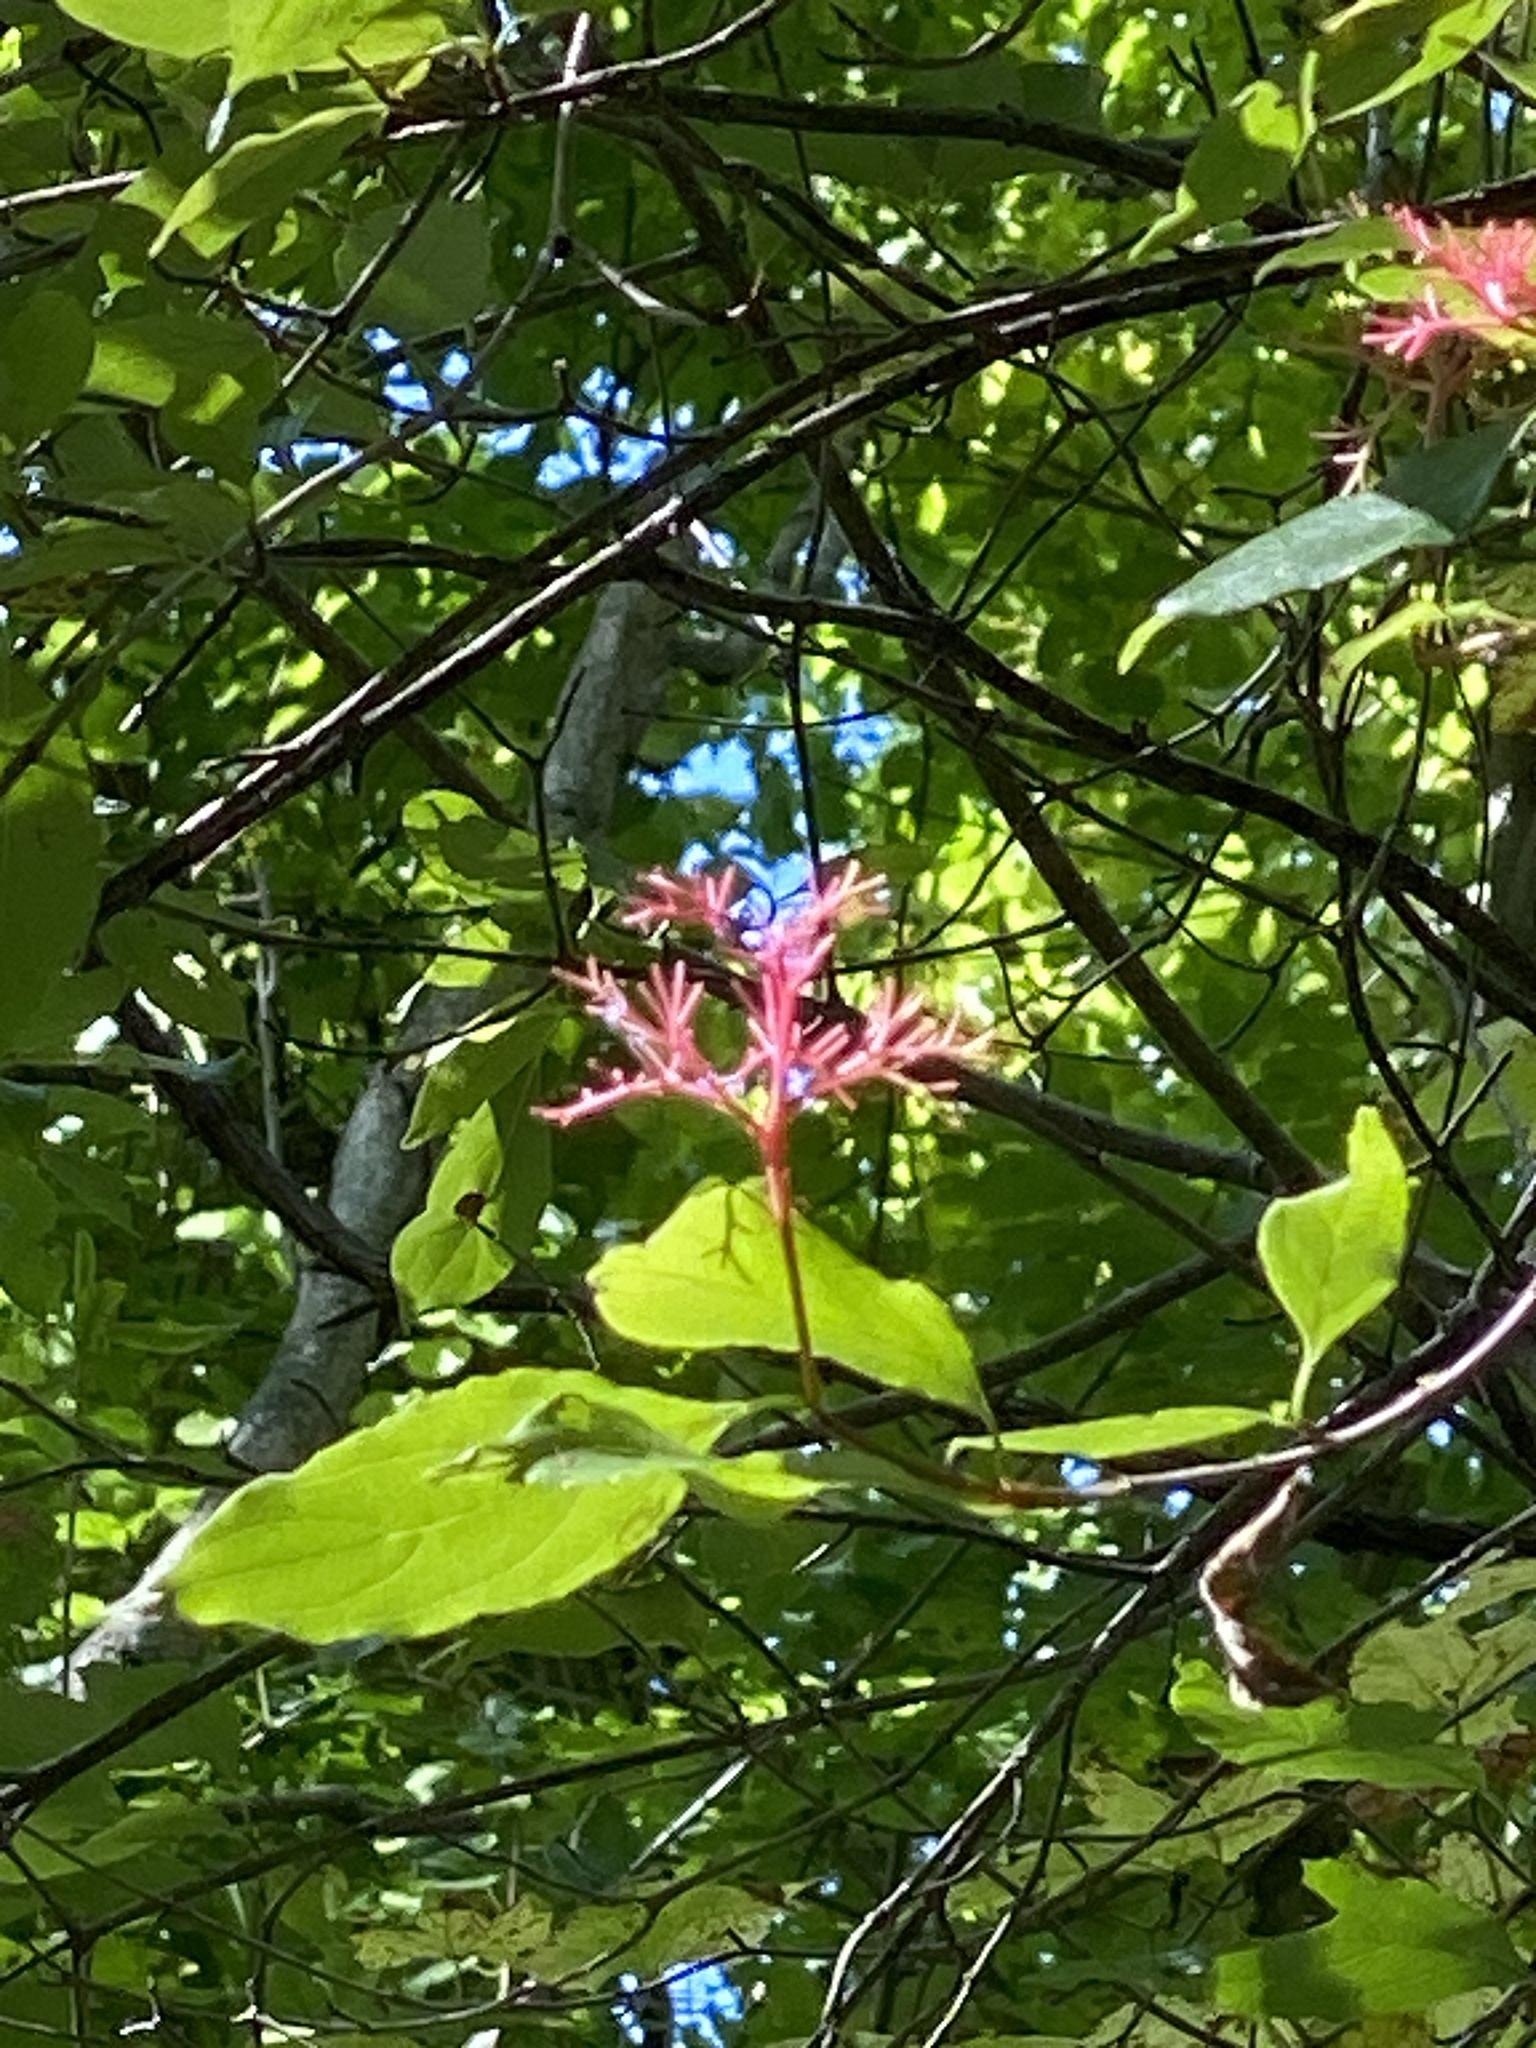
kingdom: Plantae
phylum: Tracheophyta
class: Magnoliopsida
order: Cornales
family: Cornaceae
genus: Cornus
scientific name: Cornus racemosa
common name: Panicled dogwood
